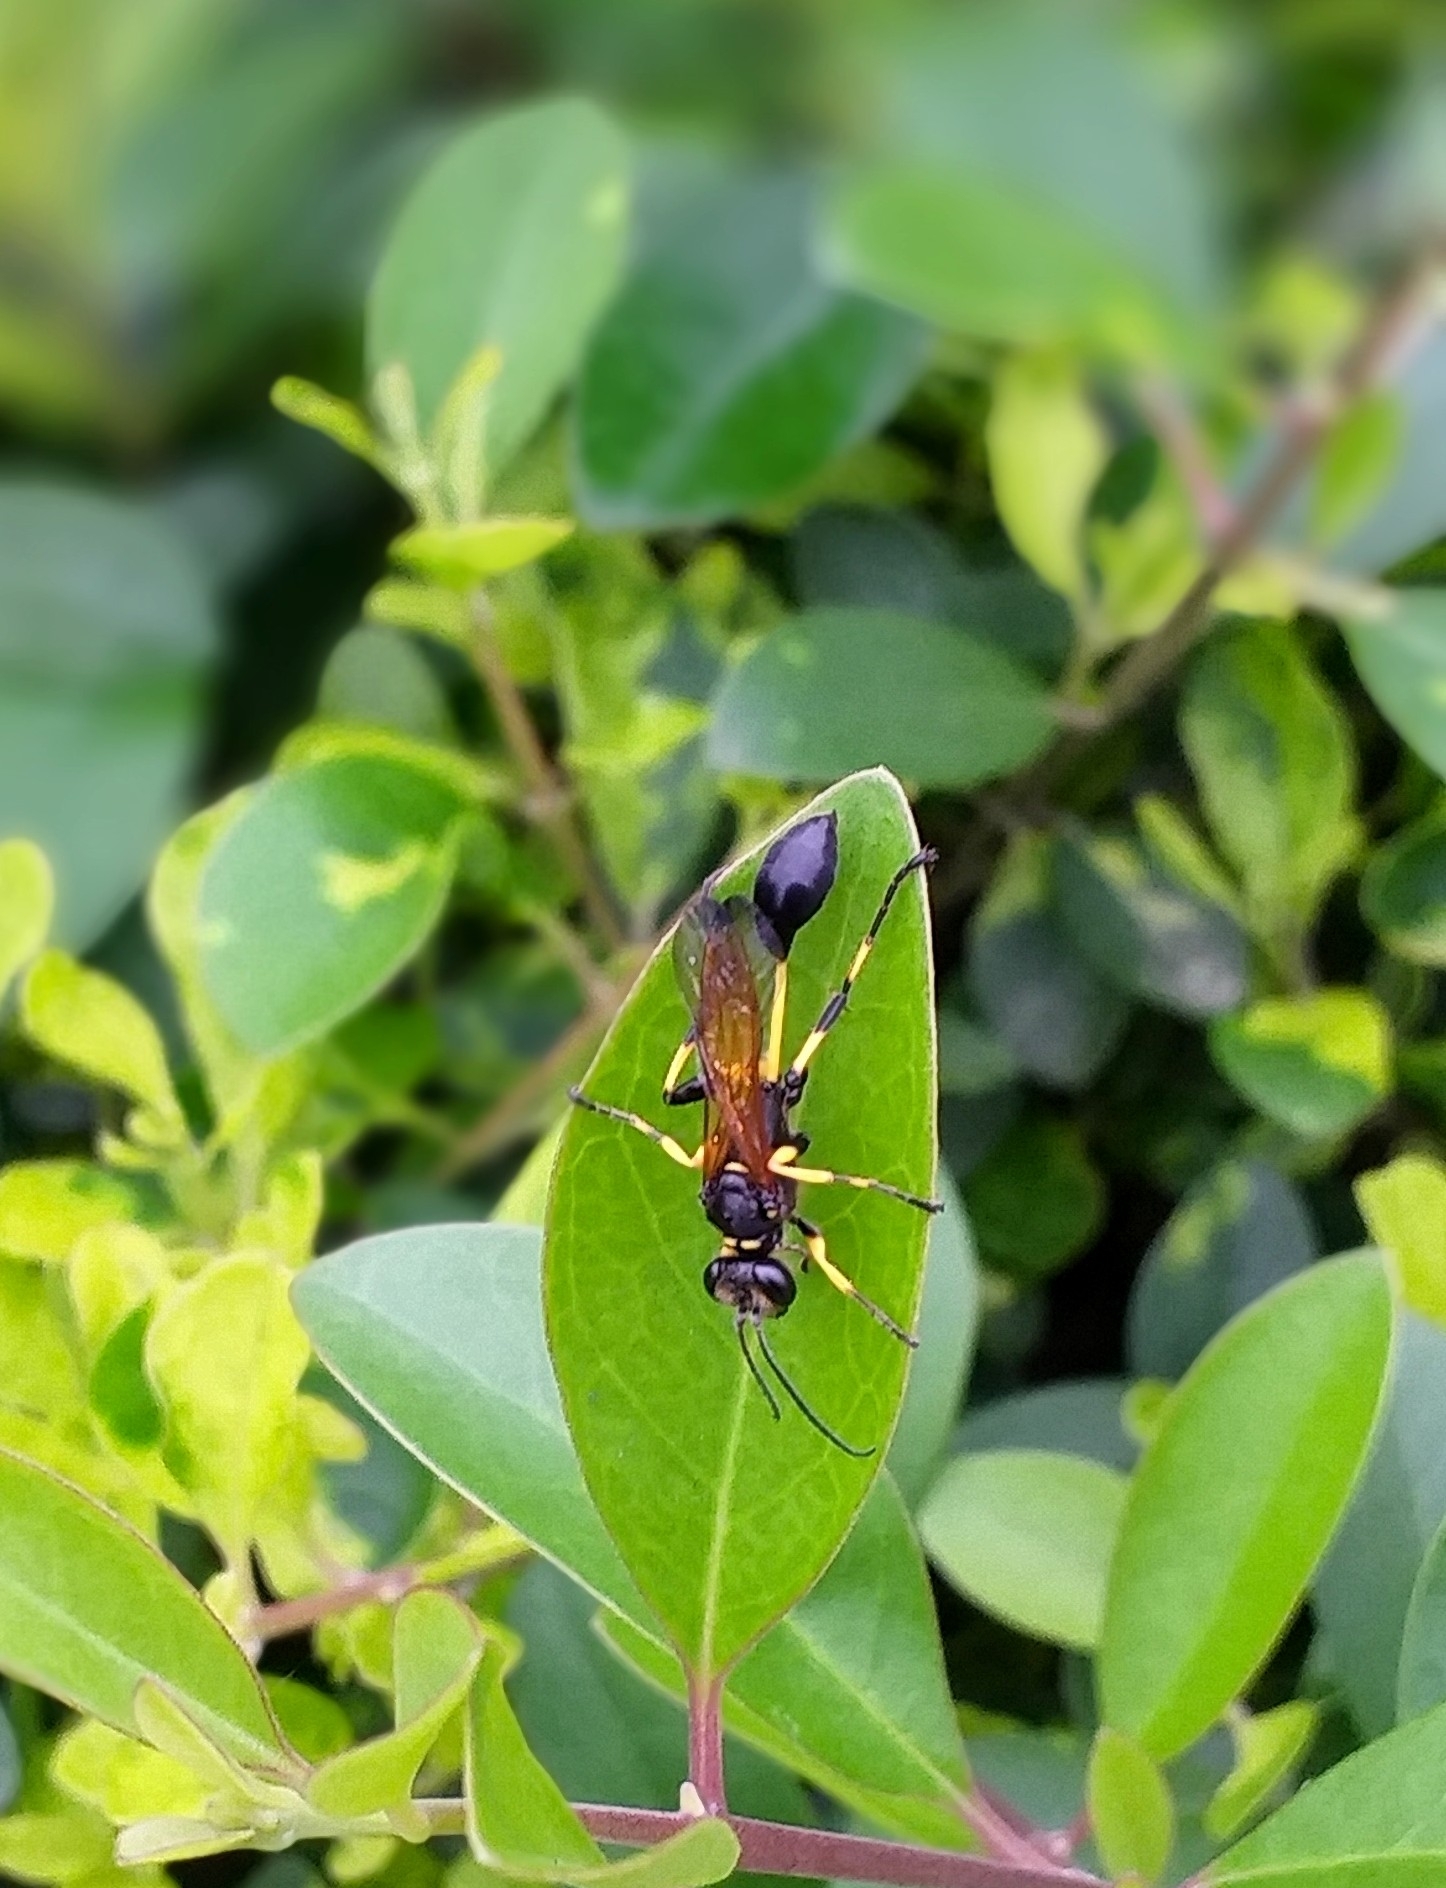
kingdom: Animalia
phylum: Arthropoda
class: Insecta
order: Hymenoptera
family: Sphecidae
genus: Sceliphron
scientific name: Sceliphron madraspatanum
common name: Mud dauber
